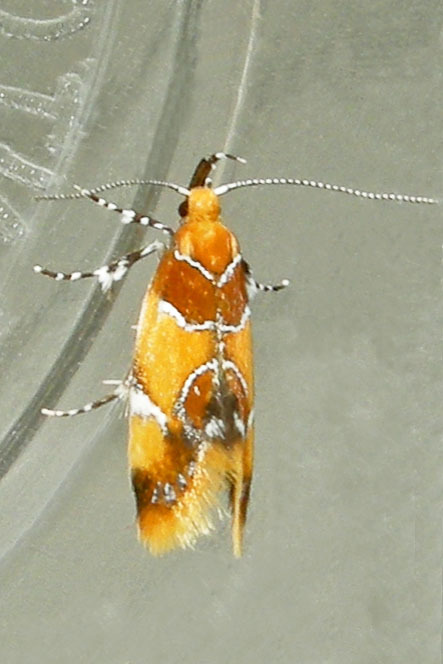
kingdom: Animalia
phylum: Arthropoda
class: Insecta
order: Lepidoptera
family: Oecophoridae
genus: Callima
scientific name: Callima argenticinctella
